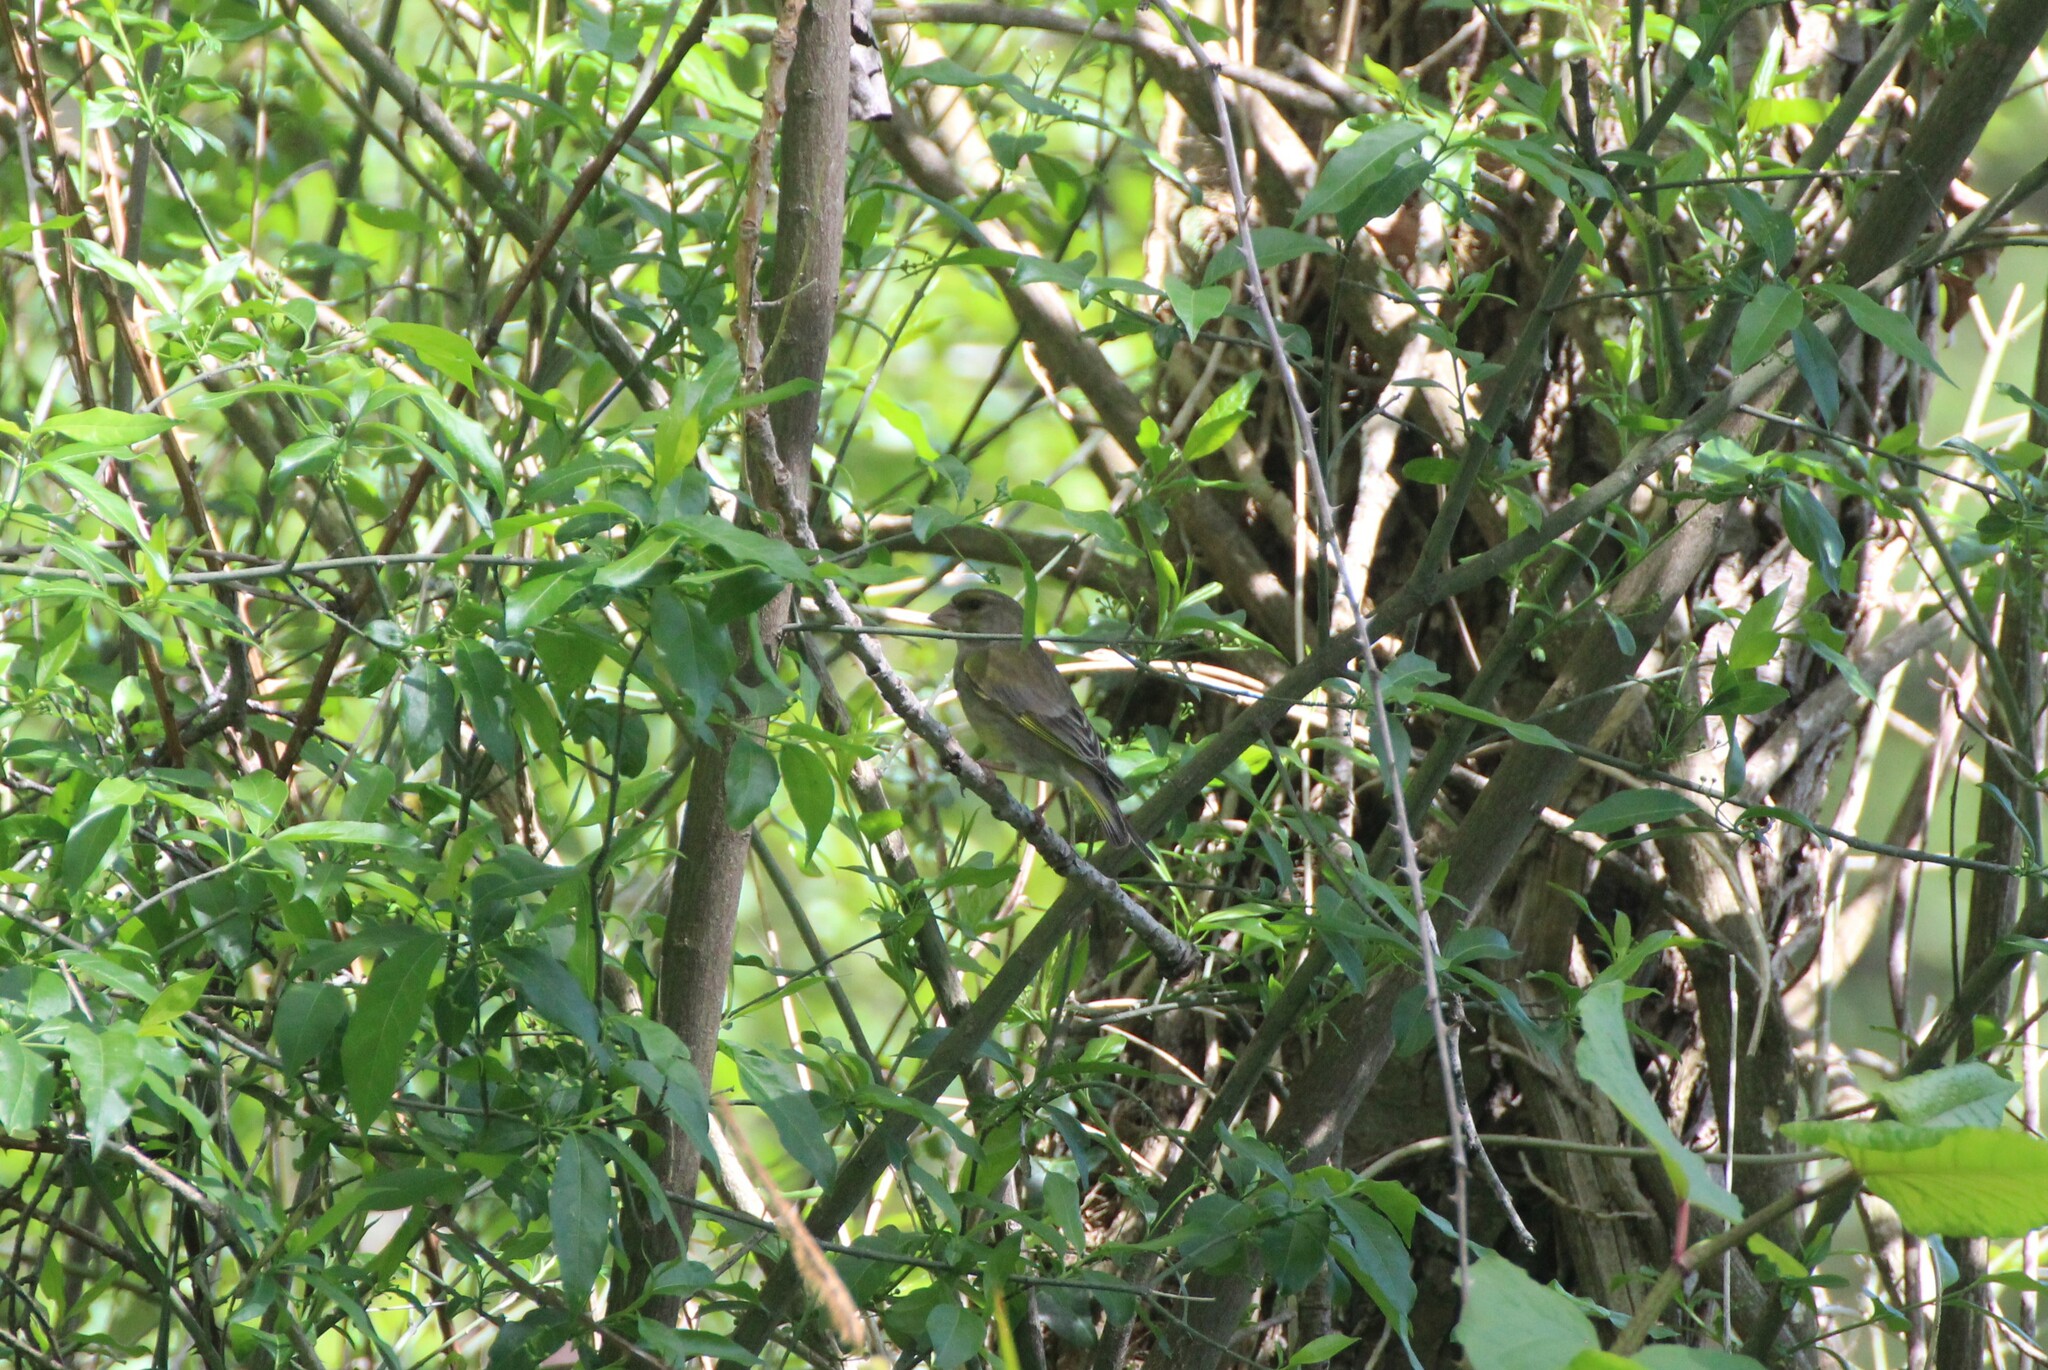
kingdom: Plantae
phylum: Tracheophyta
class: Liliopsida
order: Poales
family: Poaceae
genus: Chloris
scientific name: Chloris chloris
